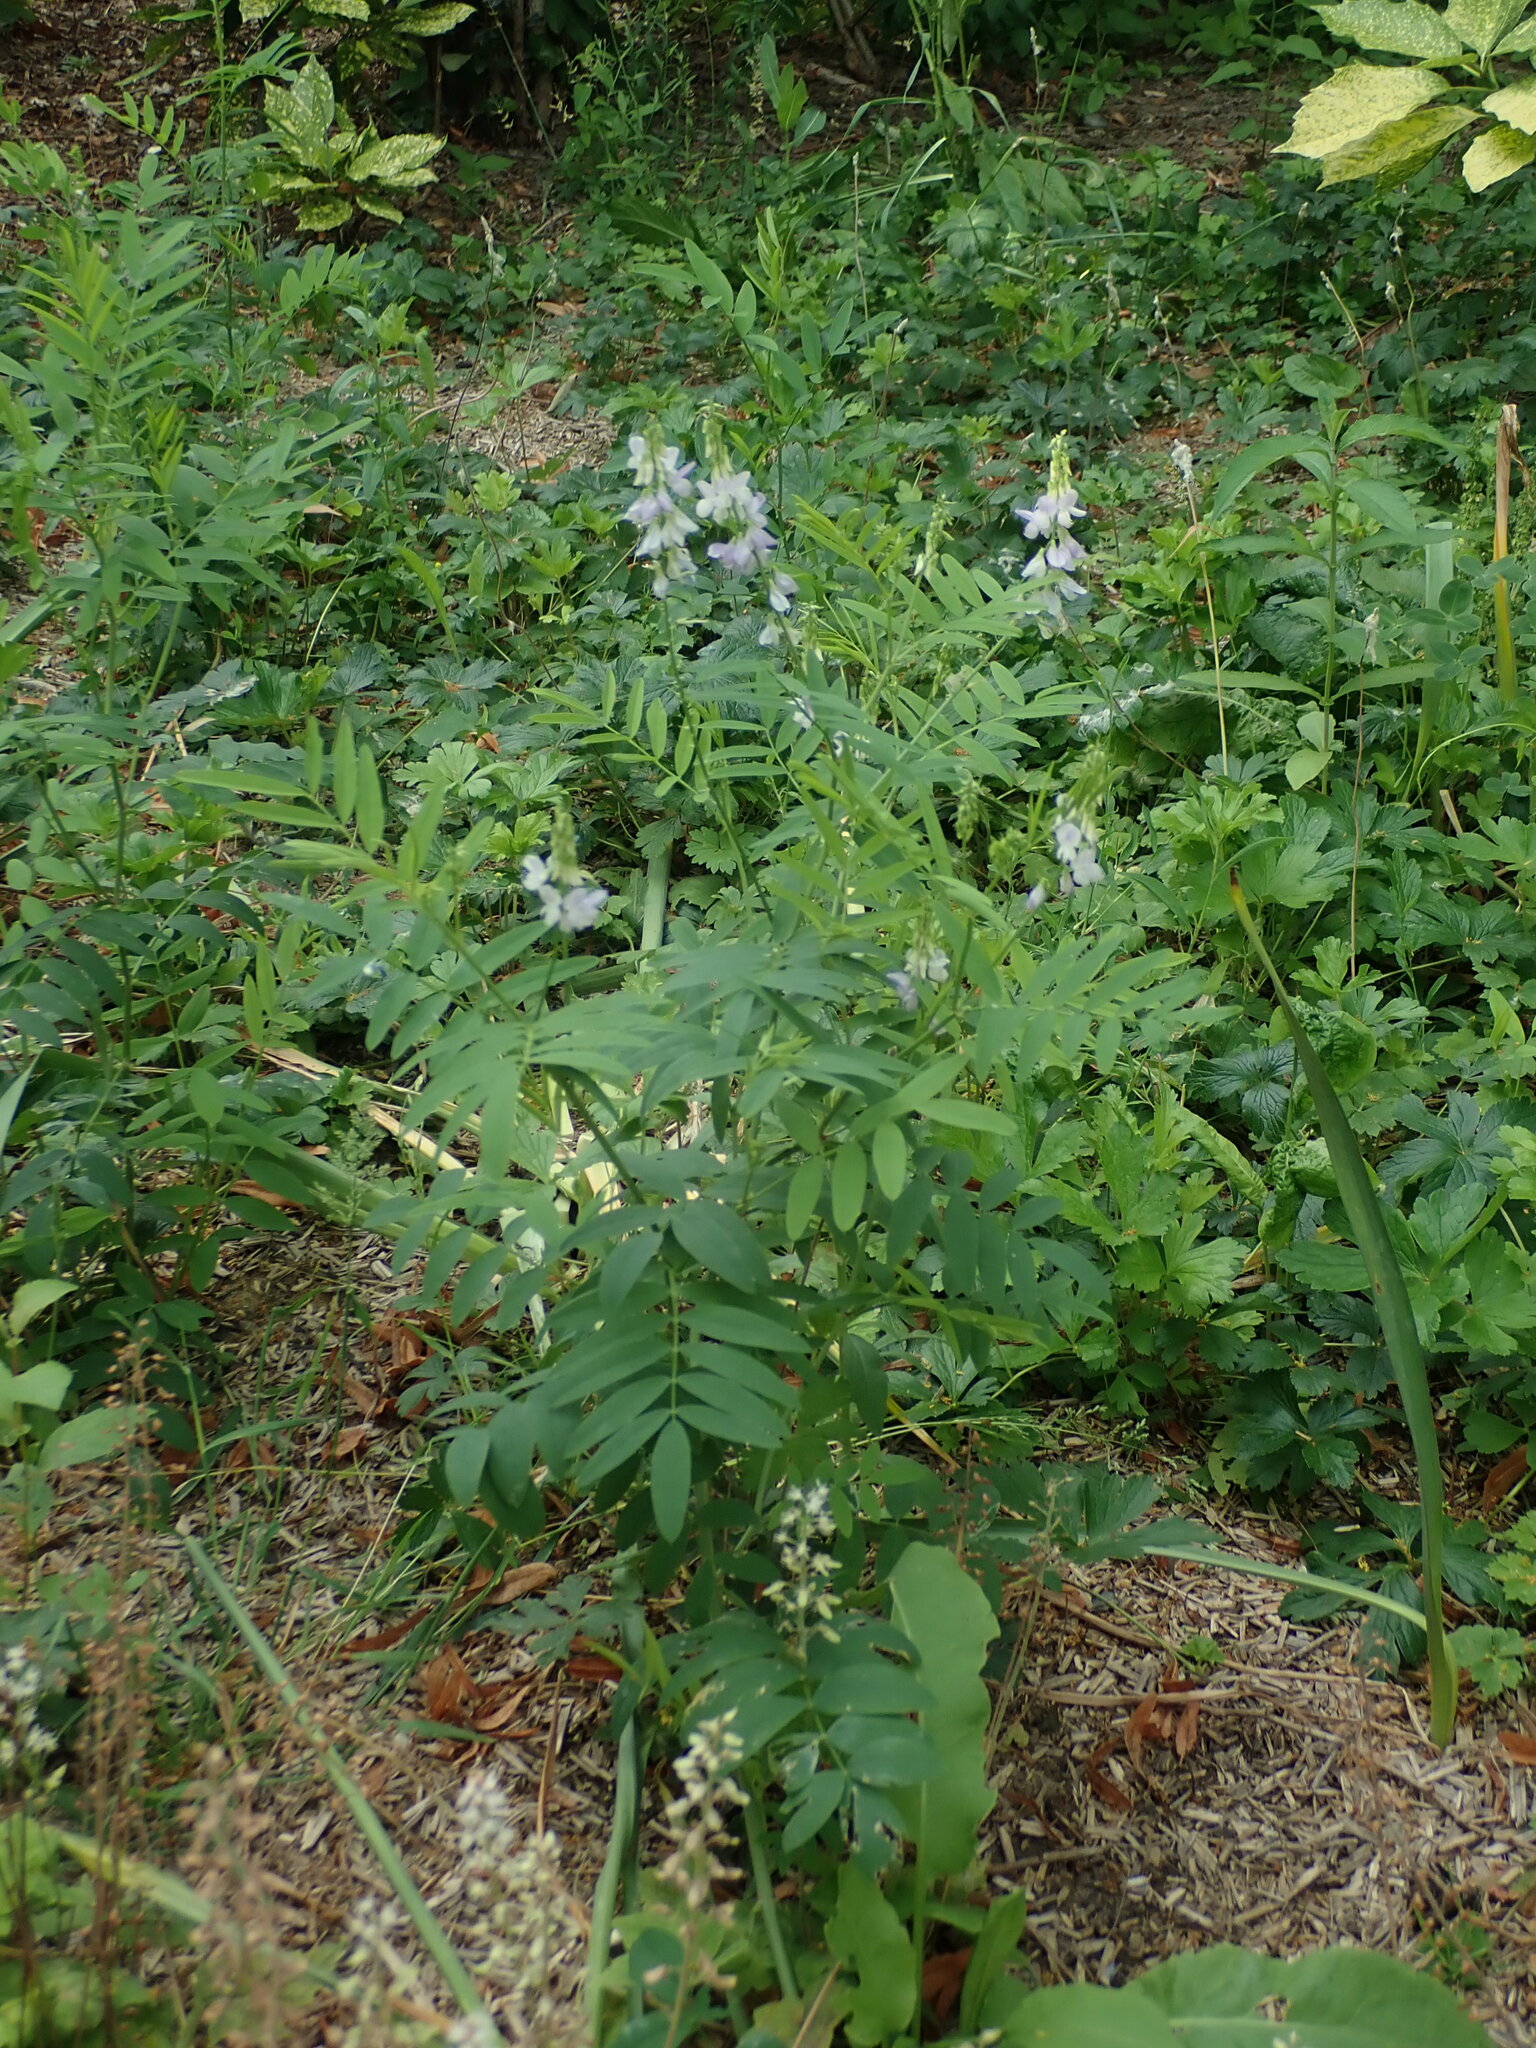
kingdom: Plantae
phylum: Tracheophyta
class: Magnoliopsida
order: Fabales
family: Fabaceae
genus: Galega
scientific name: Galega officinalis
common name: Goat's-rue
